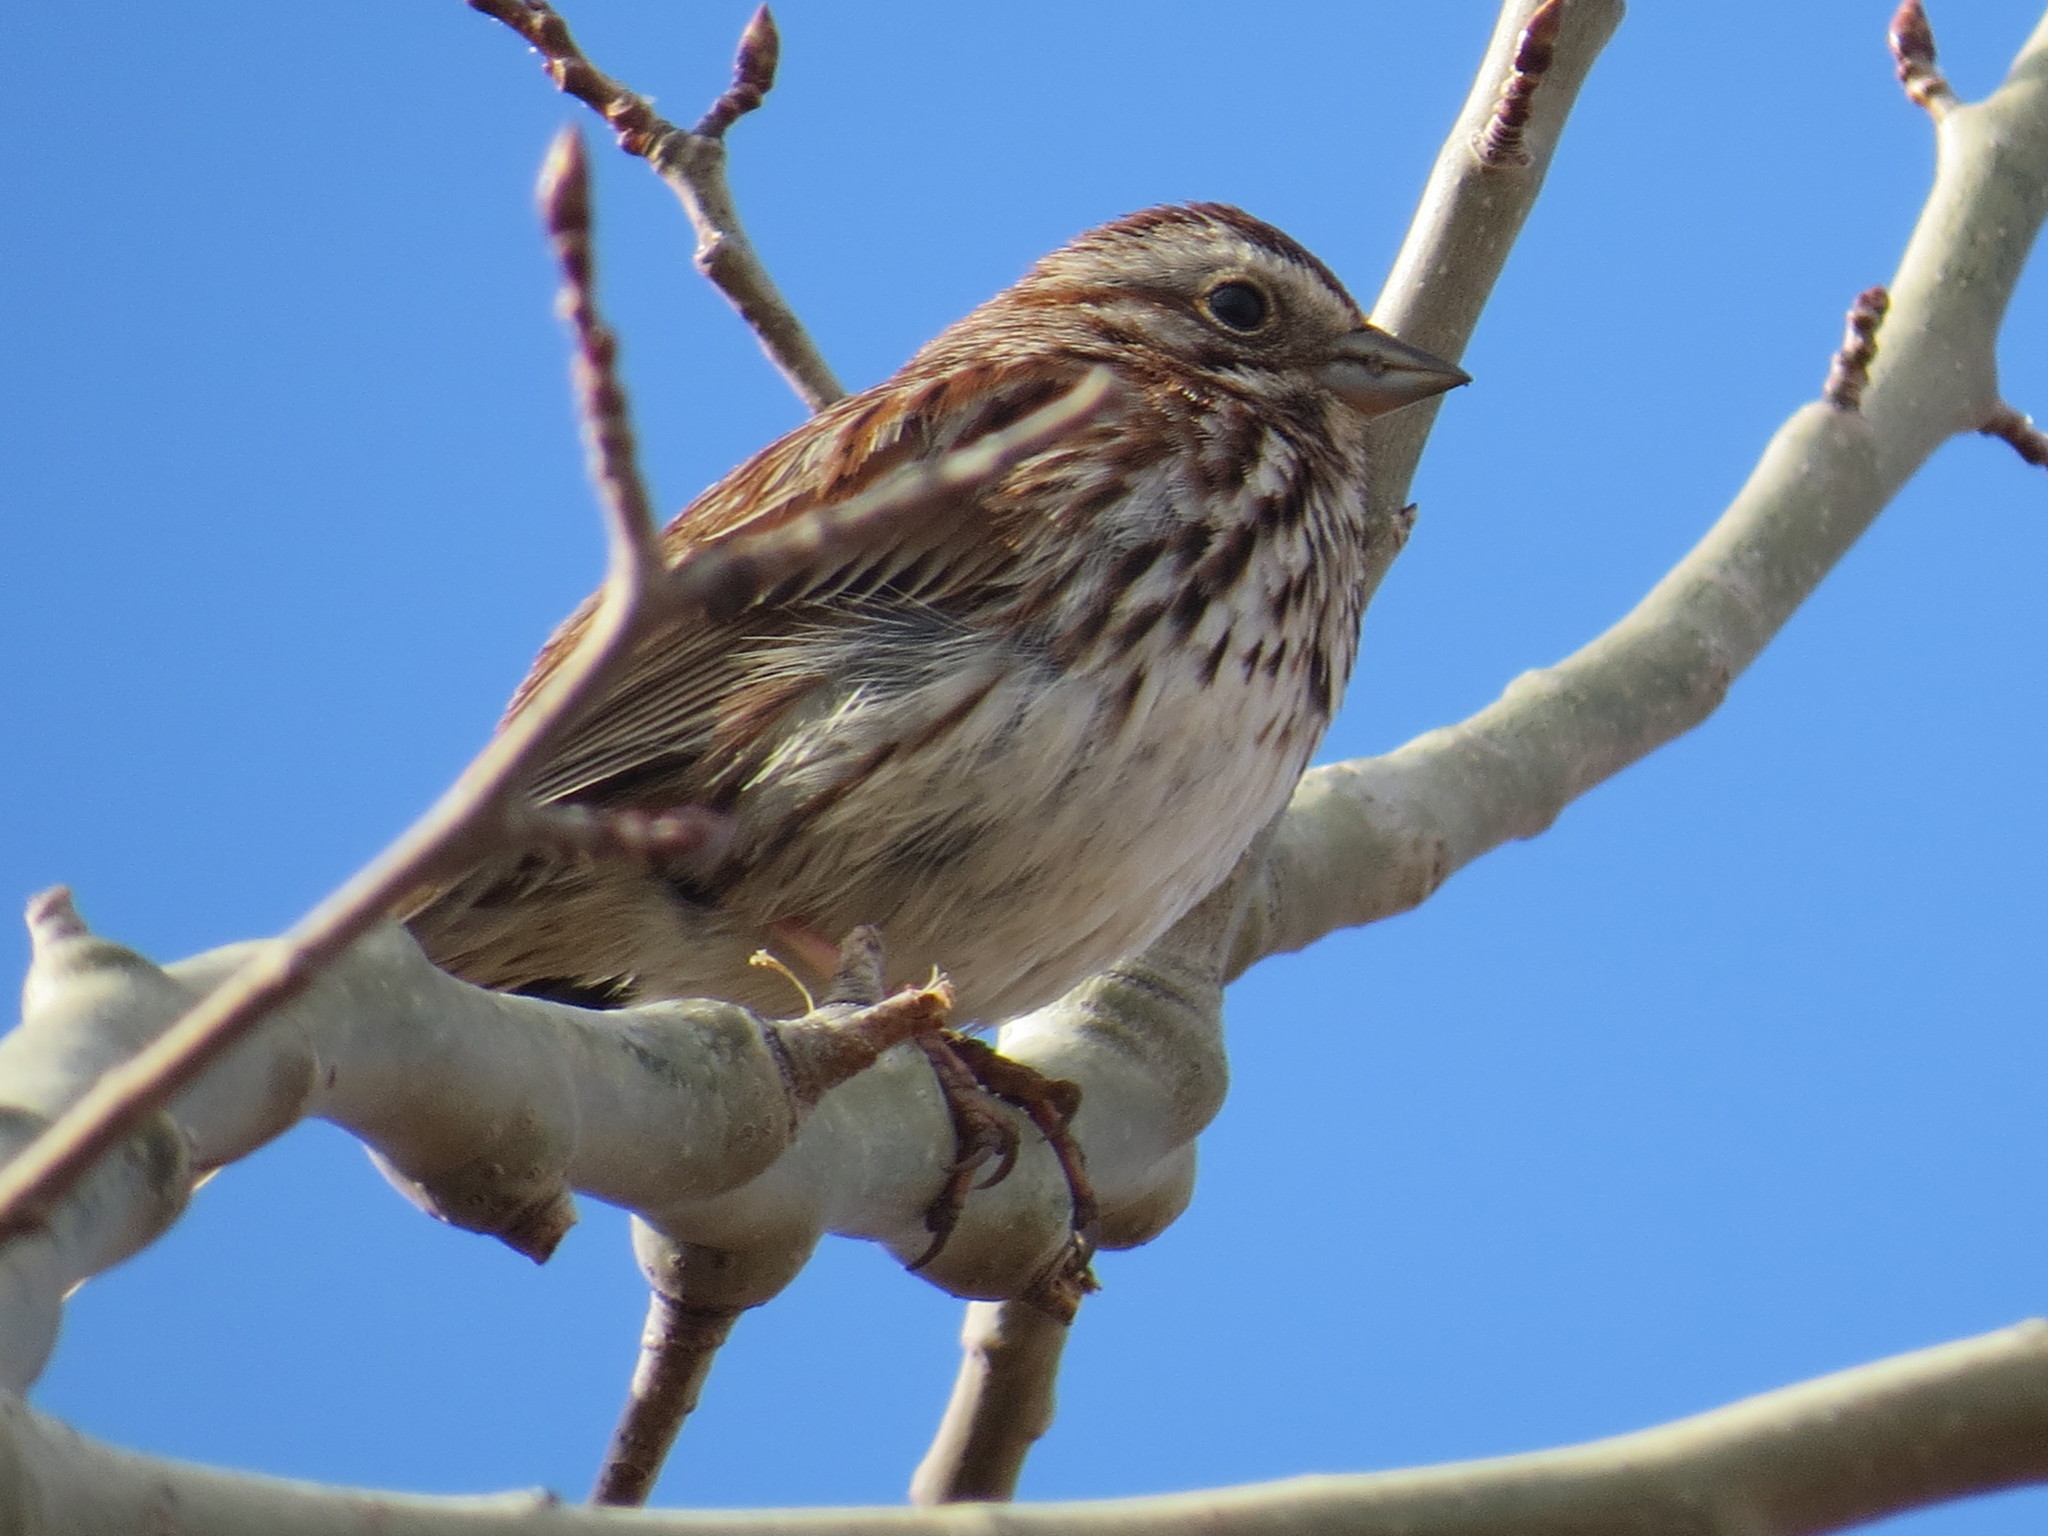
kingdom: Animalia
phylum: Chordata
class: Aves
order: Passeriformes
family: Passerellidae
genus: Melospiza
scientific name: Melospiza melodia
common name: Song sparrow
